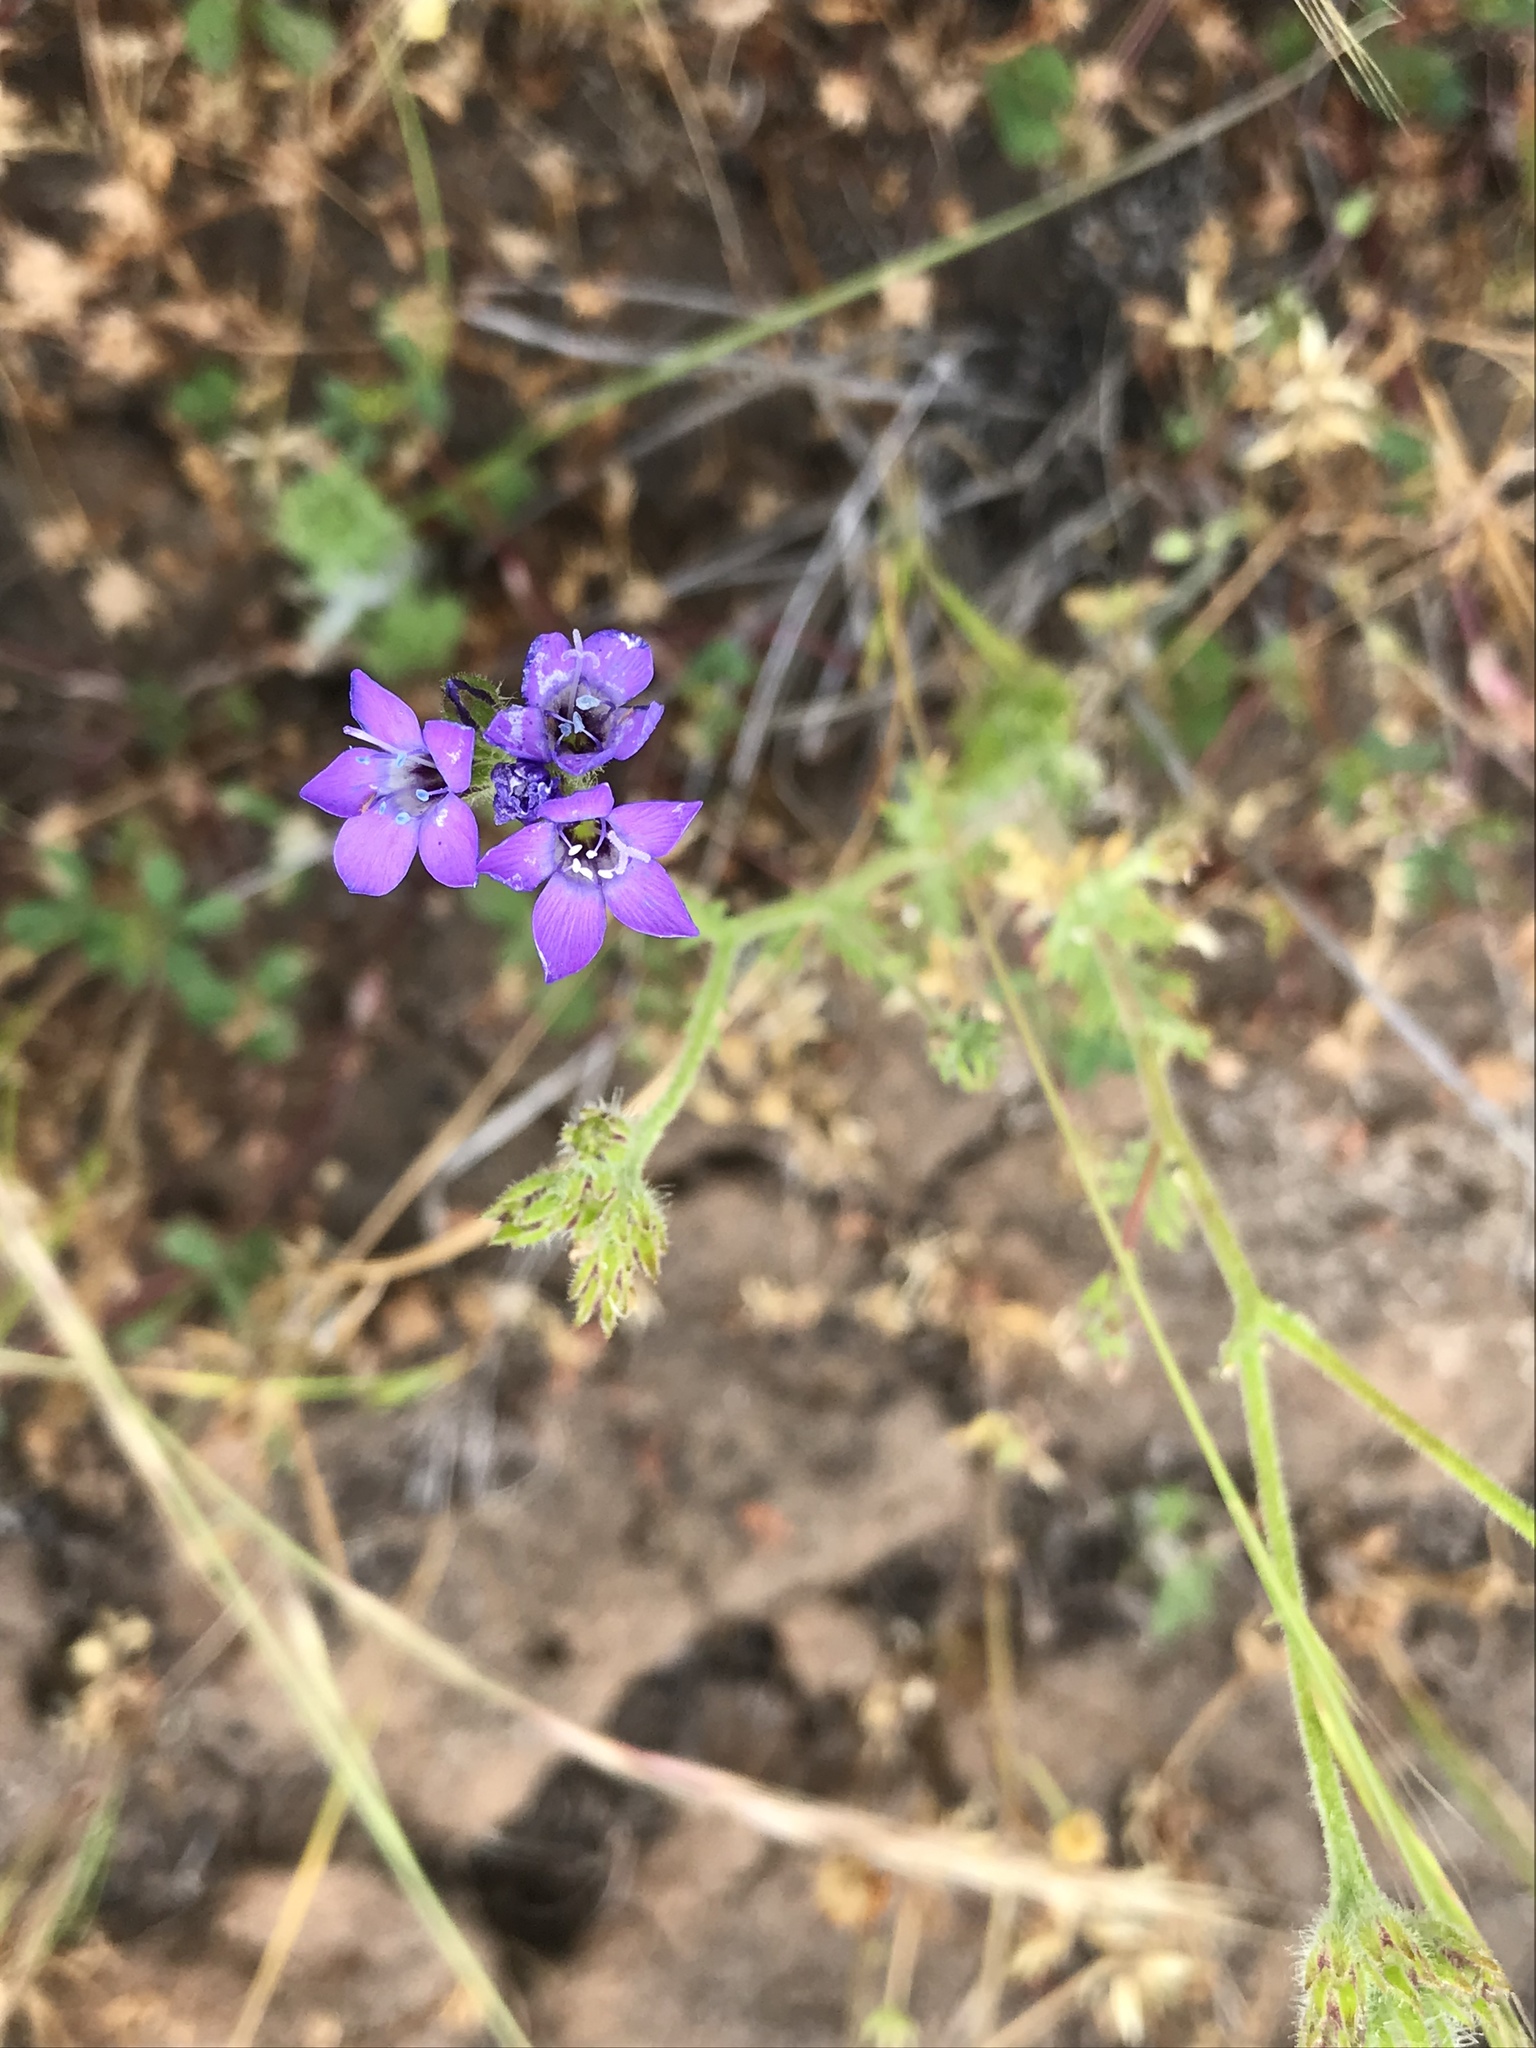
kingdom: Plantae
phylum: Tracheophyta
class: Magnoliopsida
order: Ericales
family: Polemoniaceae
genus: Gilia
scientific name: Gilia nevinii
